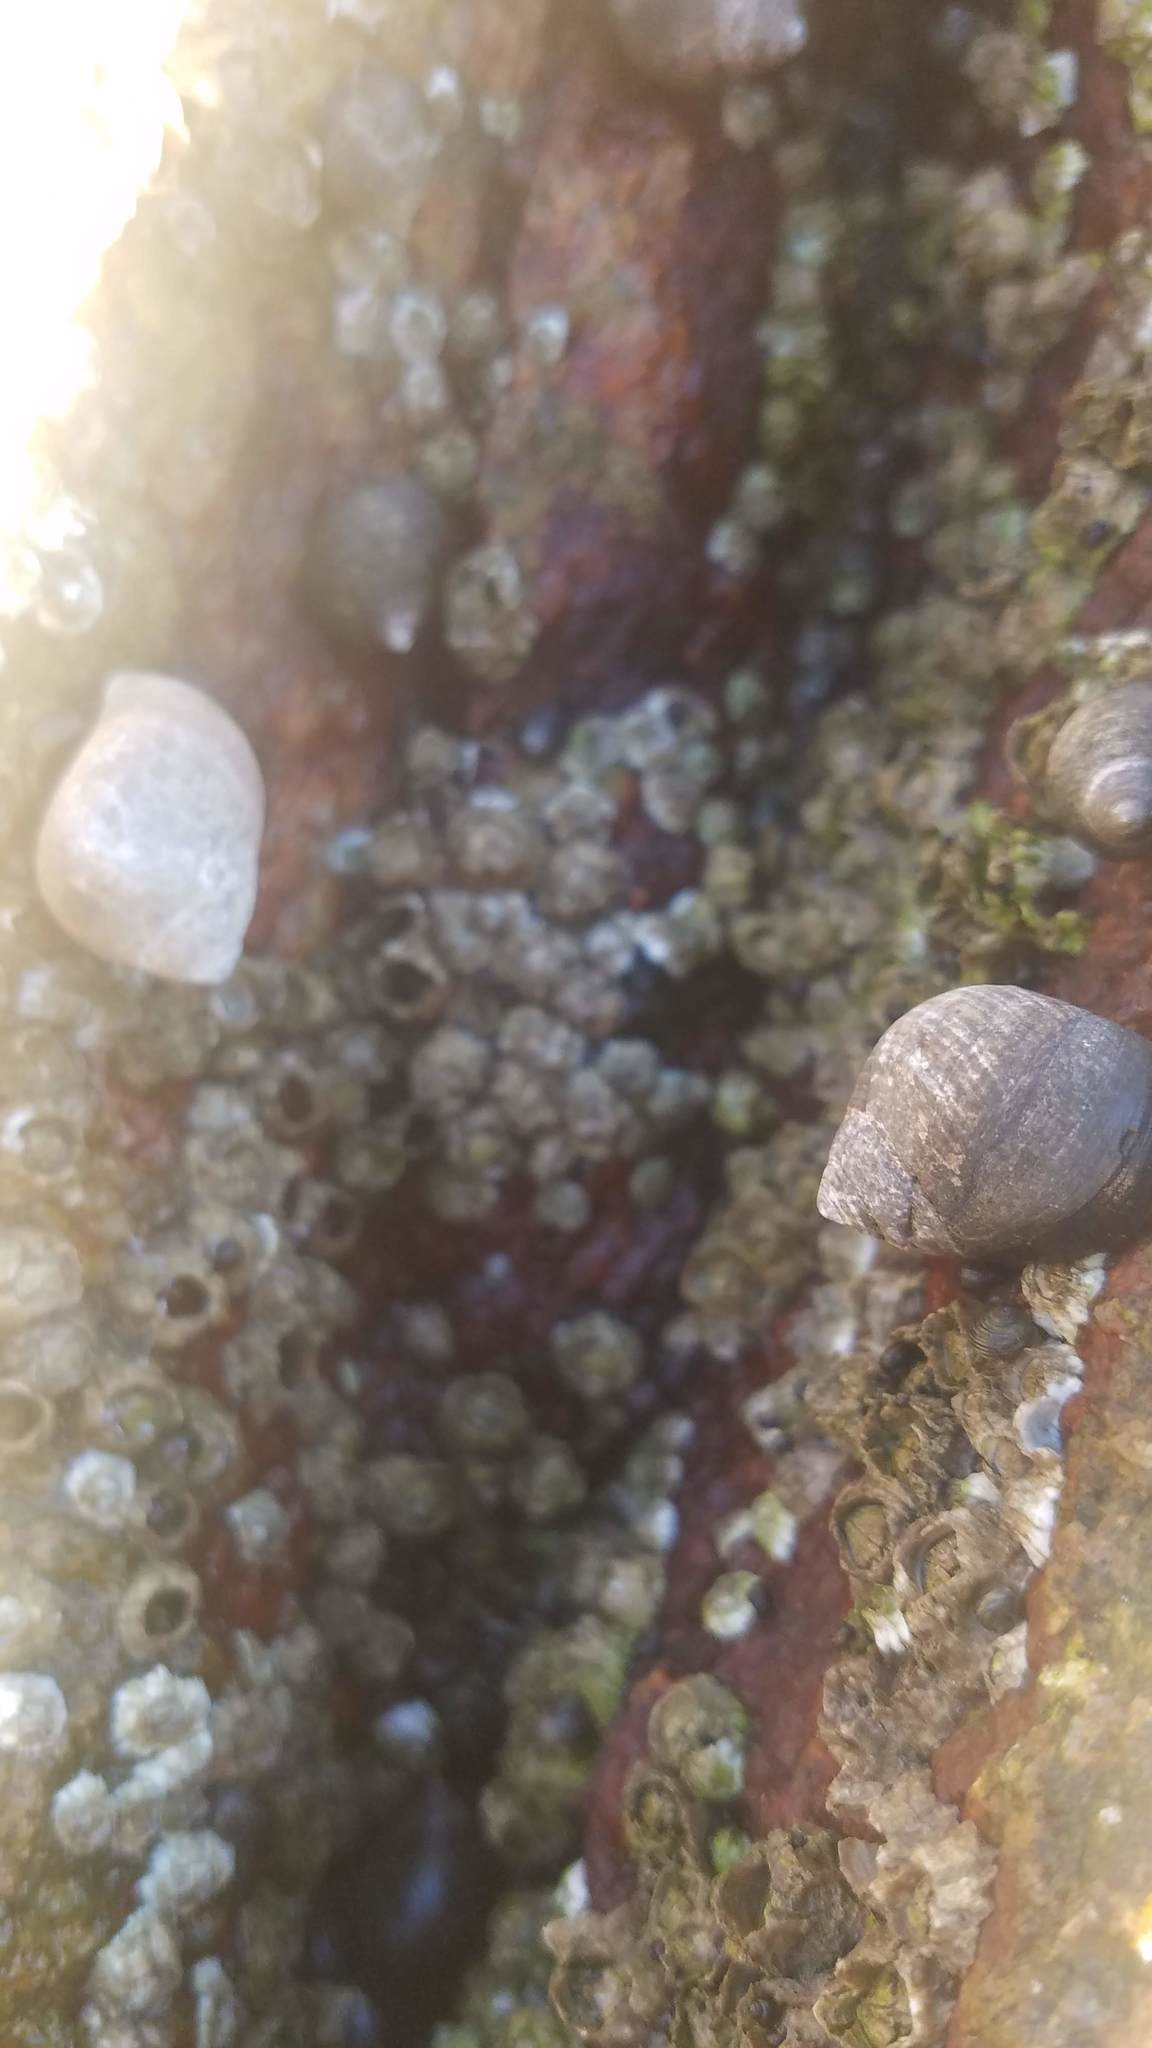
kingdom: Animalia
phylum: Arthropoda
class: Maxillopoda
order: Sessilia
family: Archaeobalanidae
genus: Semibalanus
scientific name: Semibalanus balanoides
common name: Acorn barnacle
